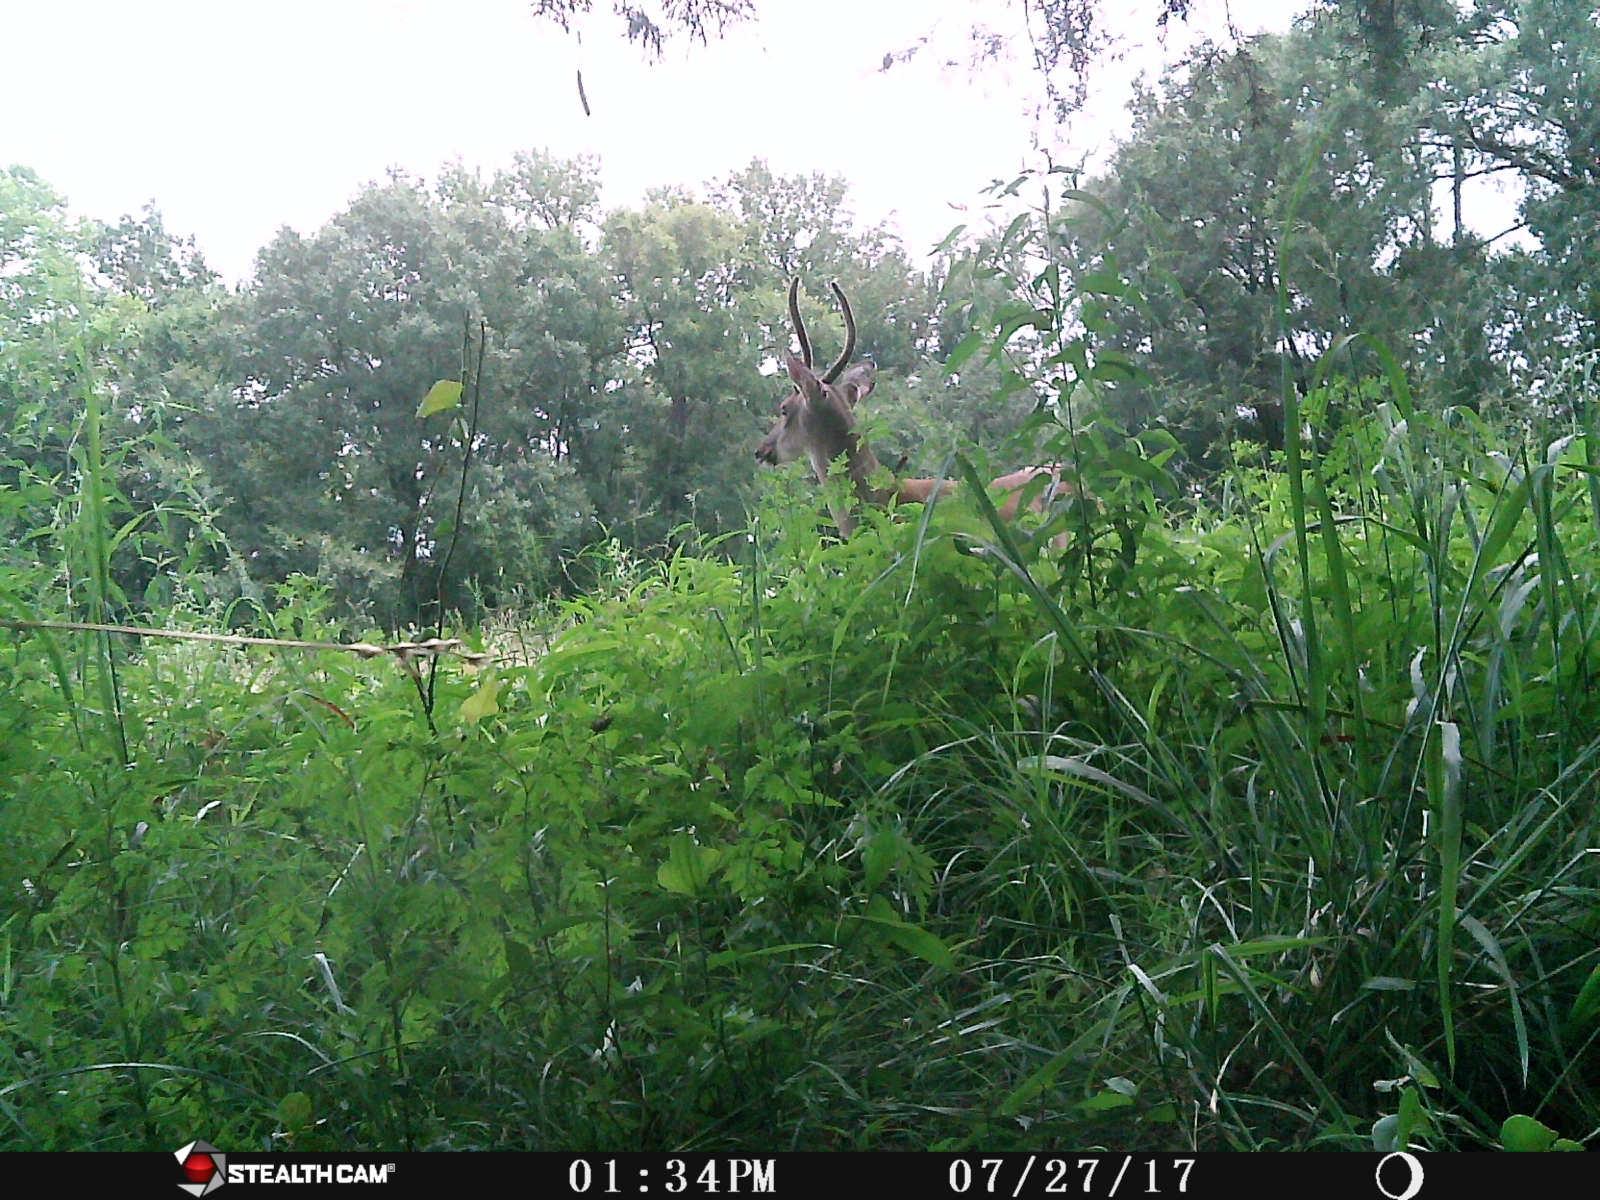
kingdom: Animalia
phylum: Chordata
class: Mammalia
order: Artiodactyla
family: Cervidae
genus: Odocoileus
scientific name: Odocoileus virginianus
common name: White-tailed deer
